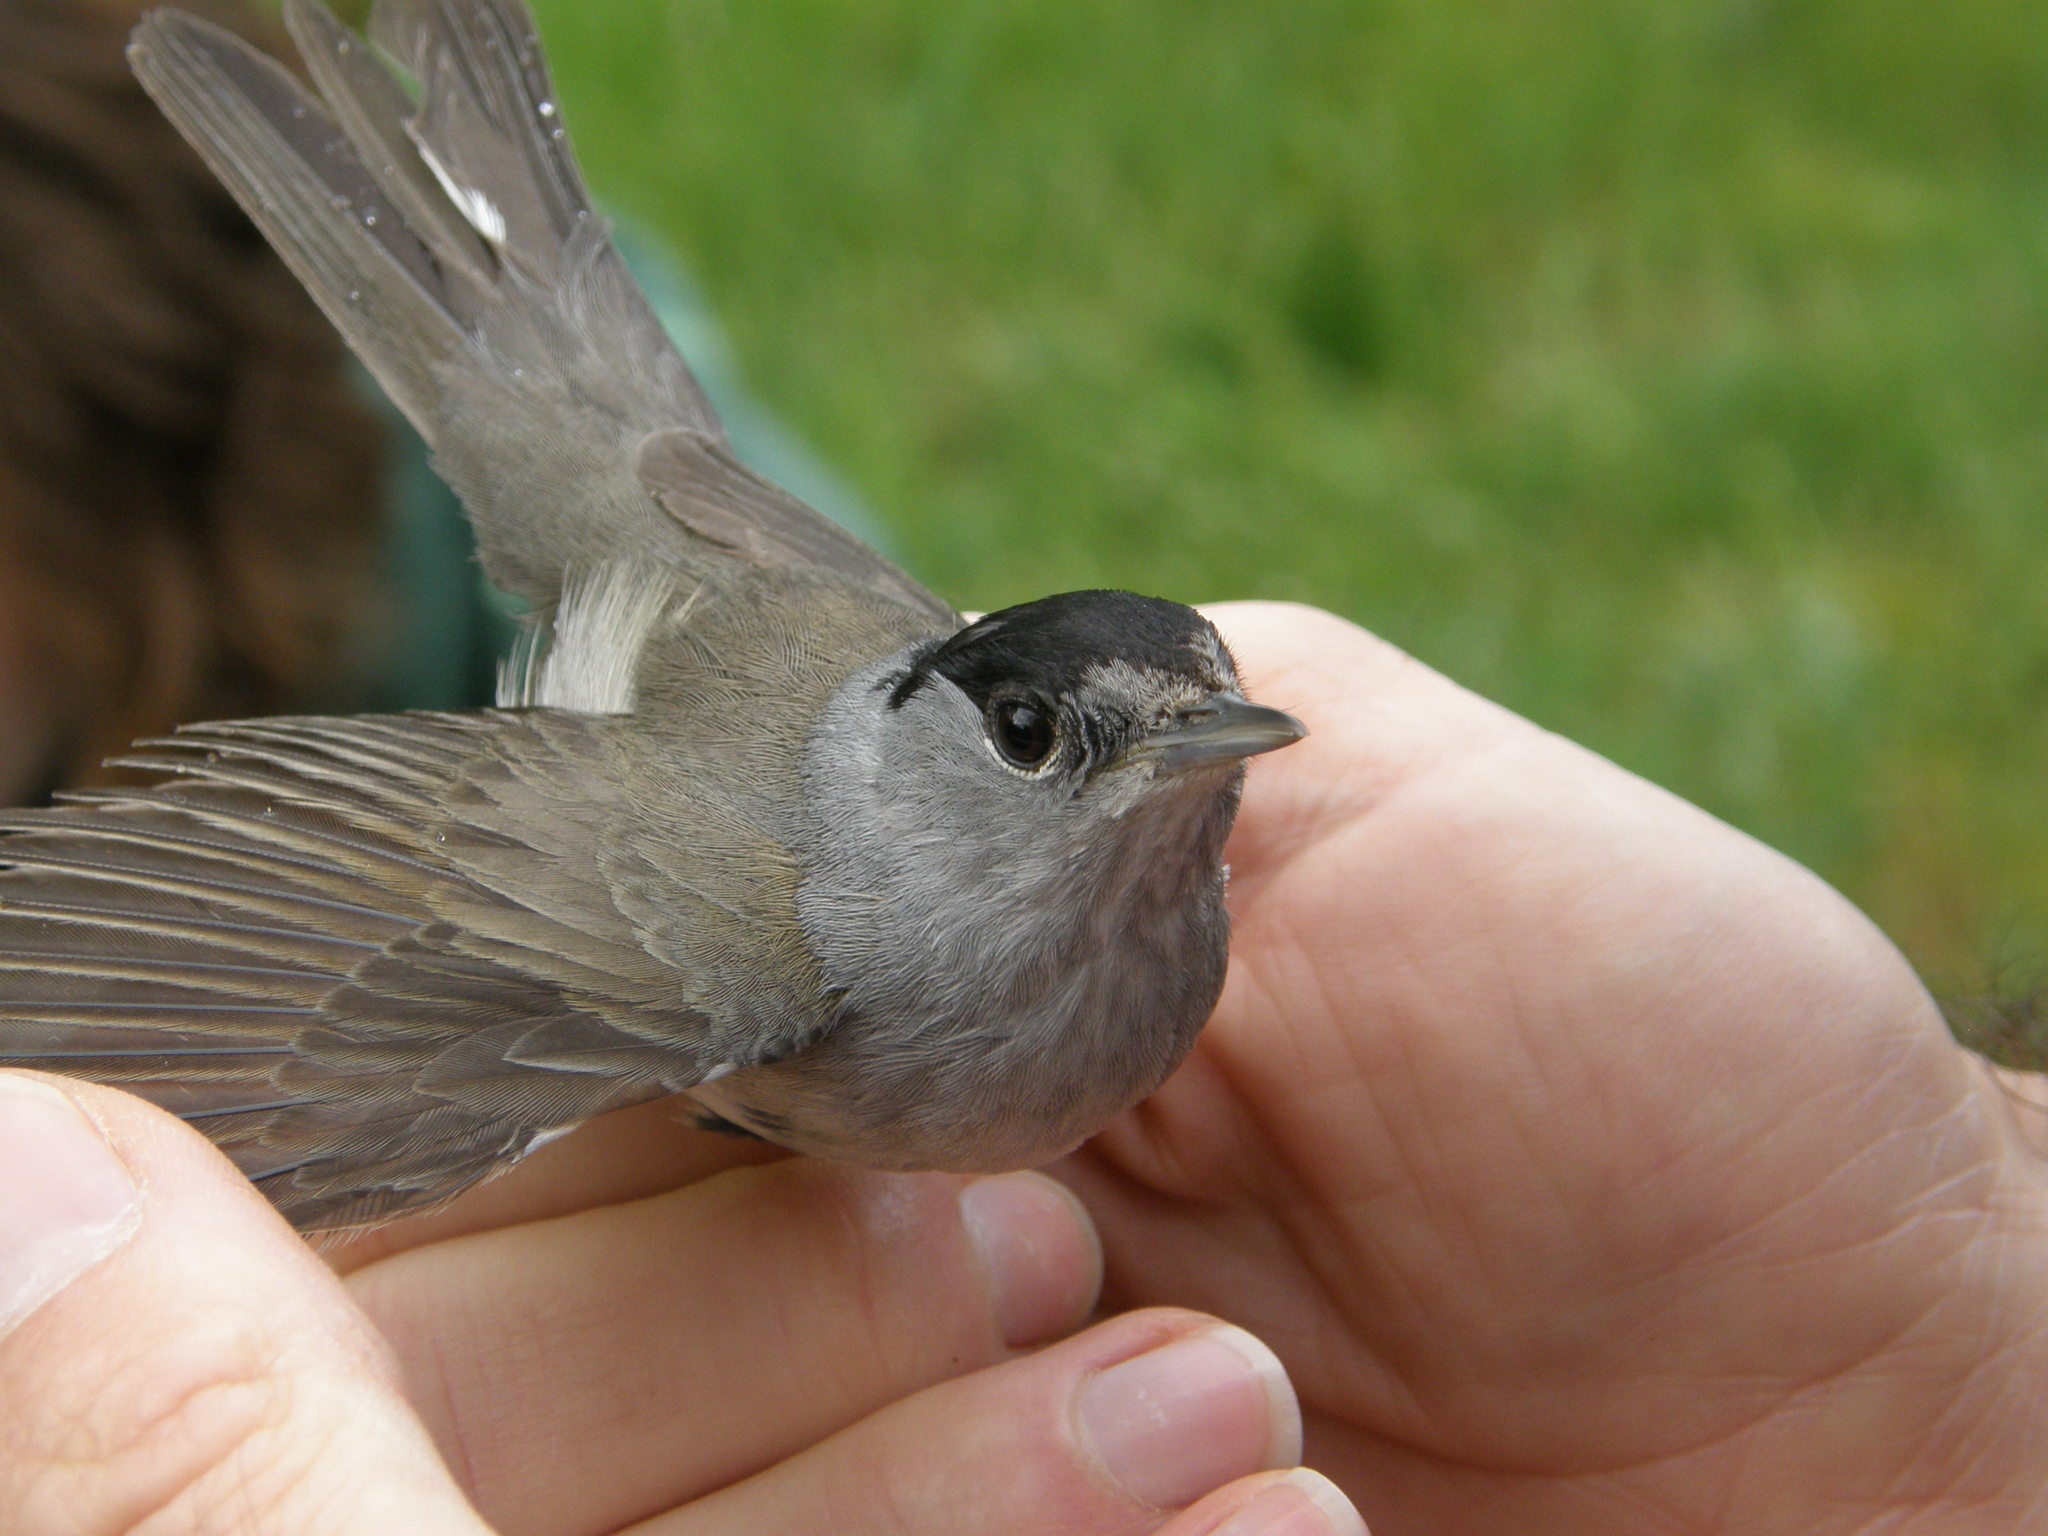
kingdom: Animalia
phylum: Chordata
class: Aves
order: Passeriformes
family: Sylviidae
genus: Sylvia
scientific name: Sylvia atricapilla
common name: Eurasian blackcap
